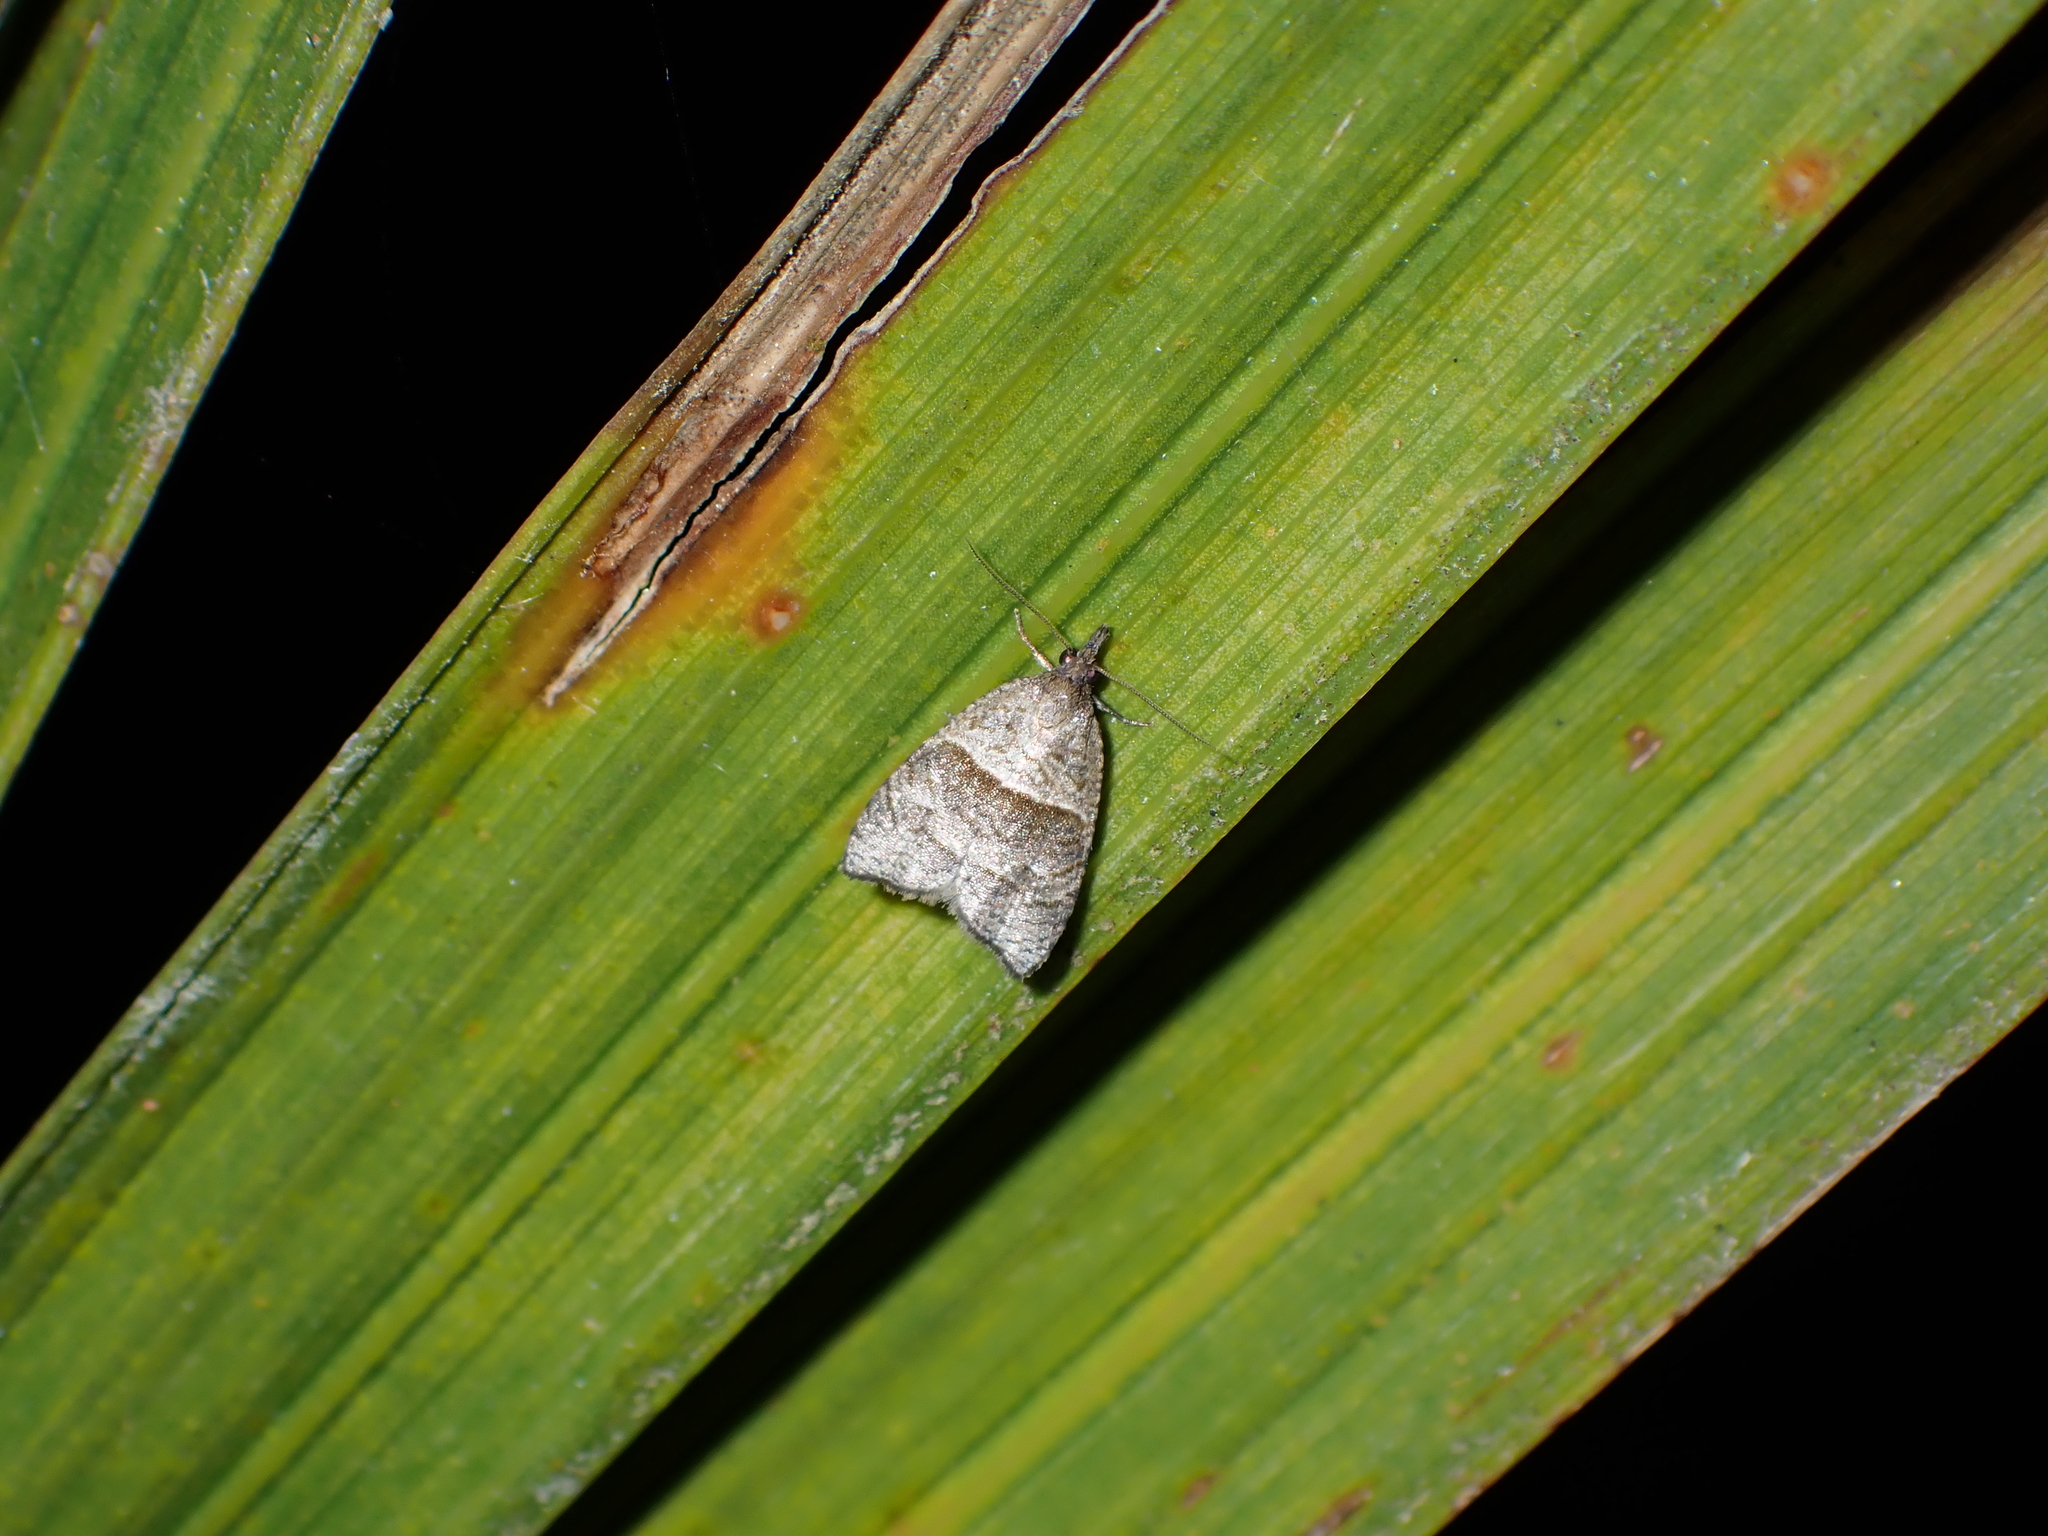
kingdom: Animalia
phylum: Arthropoda
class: Insecta
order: Lepidoptera
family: Tortricidae
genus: Cnephasia
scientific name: Cnephasia incertana
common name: Light grey tortrix
